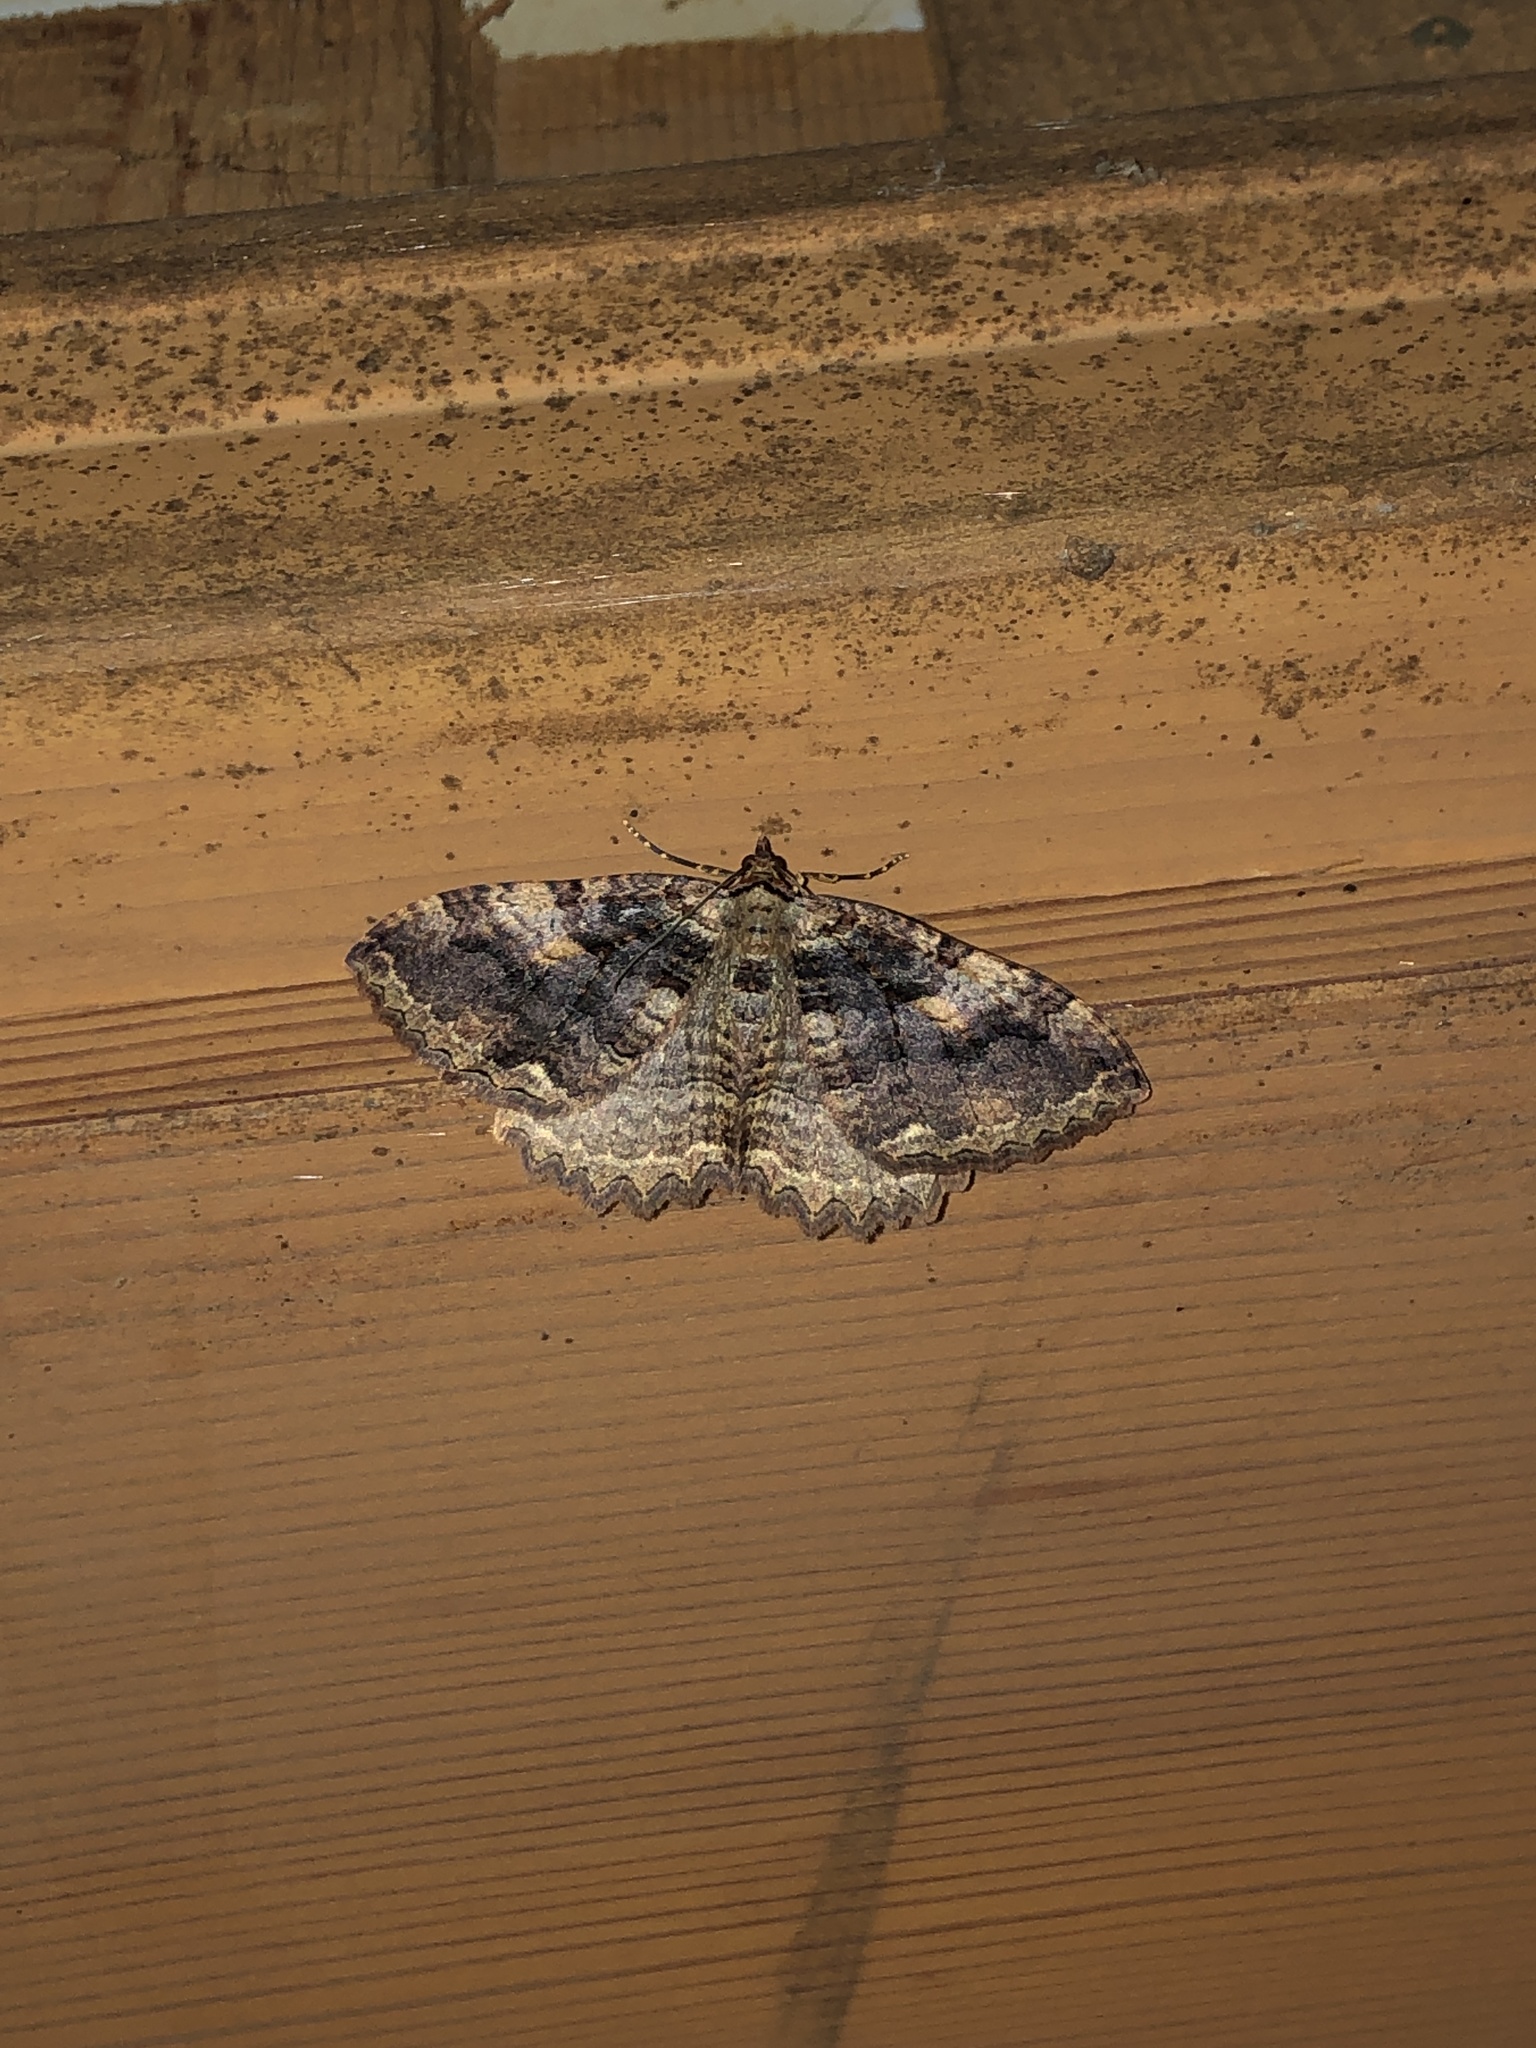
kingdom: Animalia
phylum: Arthropoda
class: Insecta
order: Lepidoptera
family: Geometridae
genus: Triphosa
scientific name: Triphosa haesitata
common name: Tissue moth
